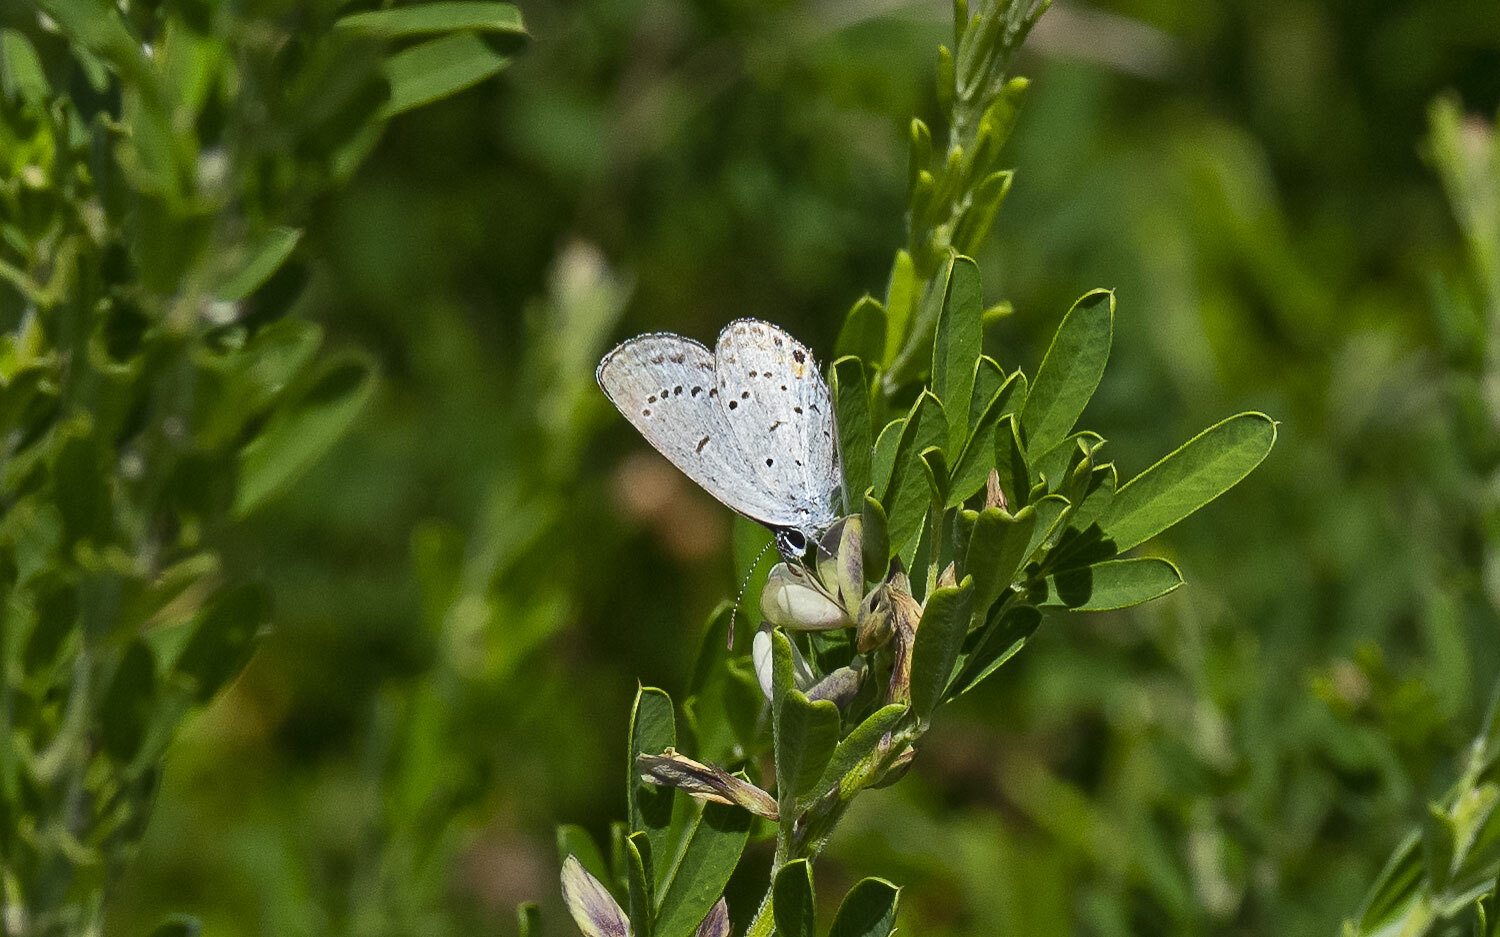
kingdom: Animalia
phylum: Arthropoda
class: Insecta
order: Lepidoptera
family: Lycaenidae
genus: Elkalyce
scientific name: Elkalyce comyntas
